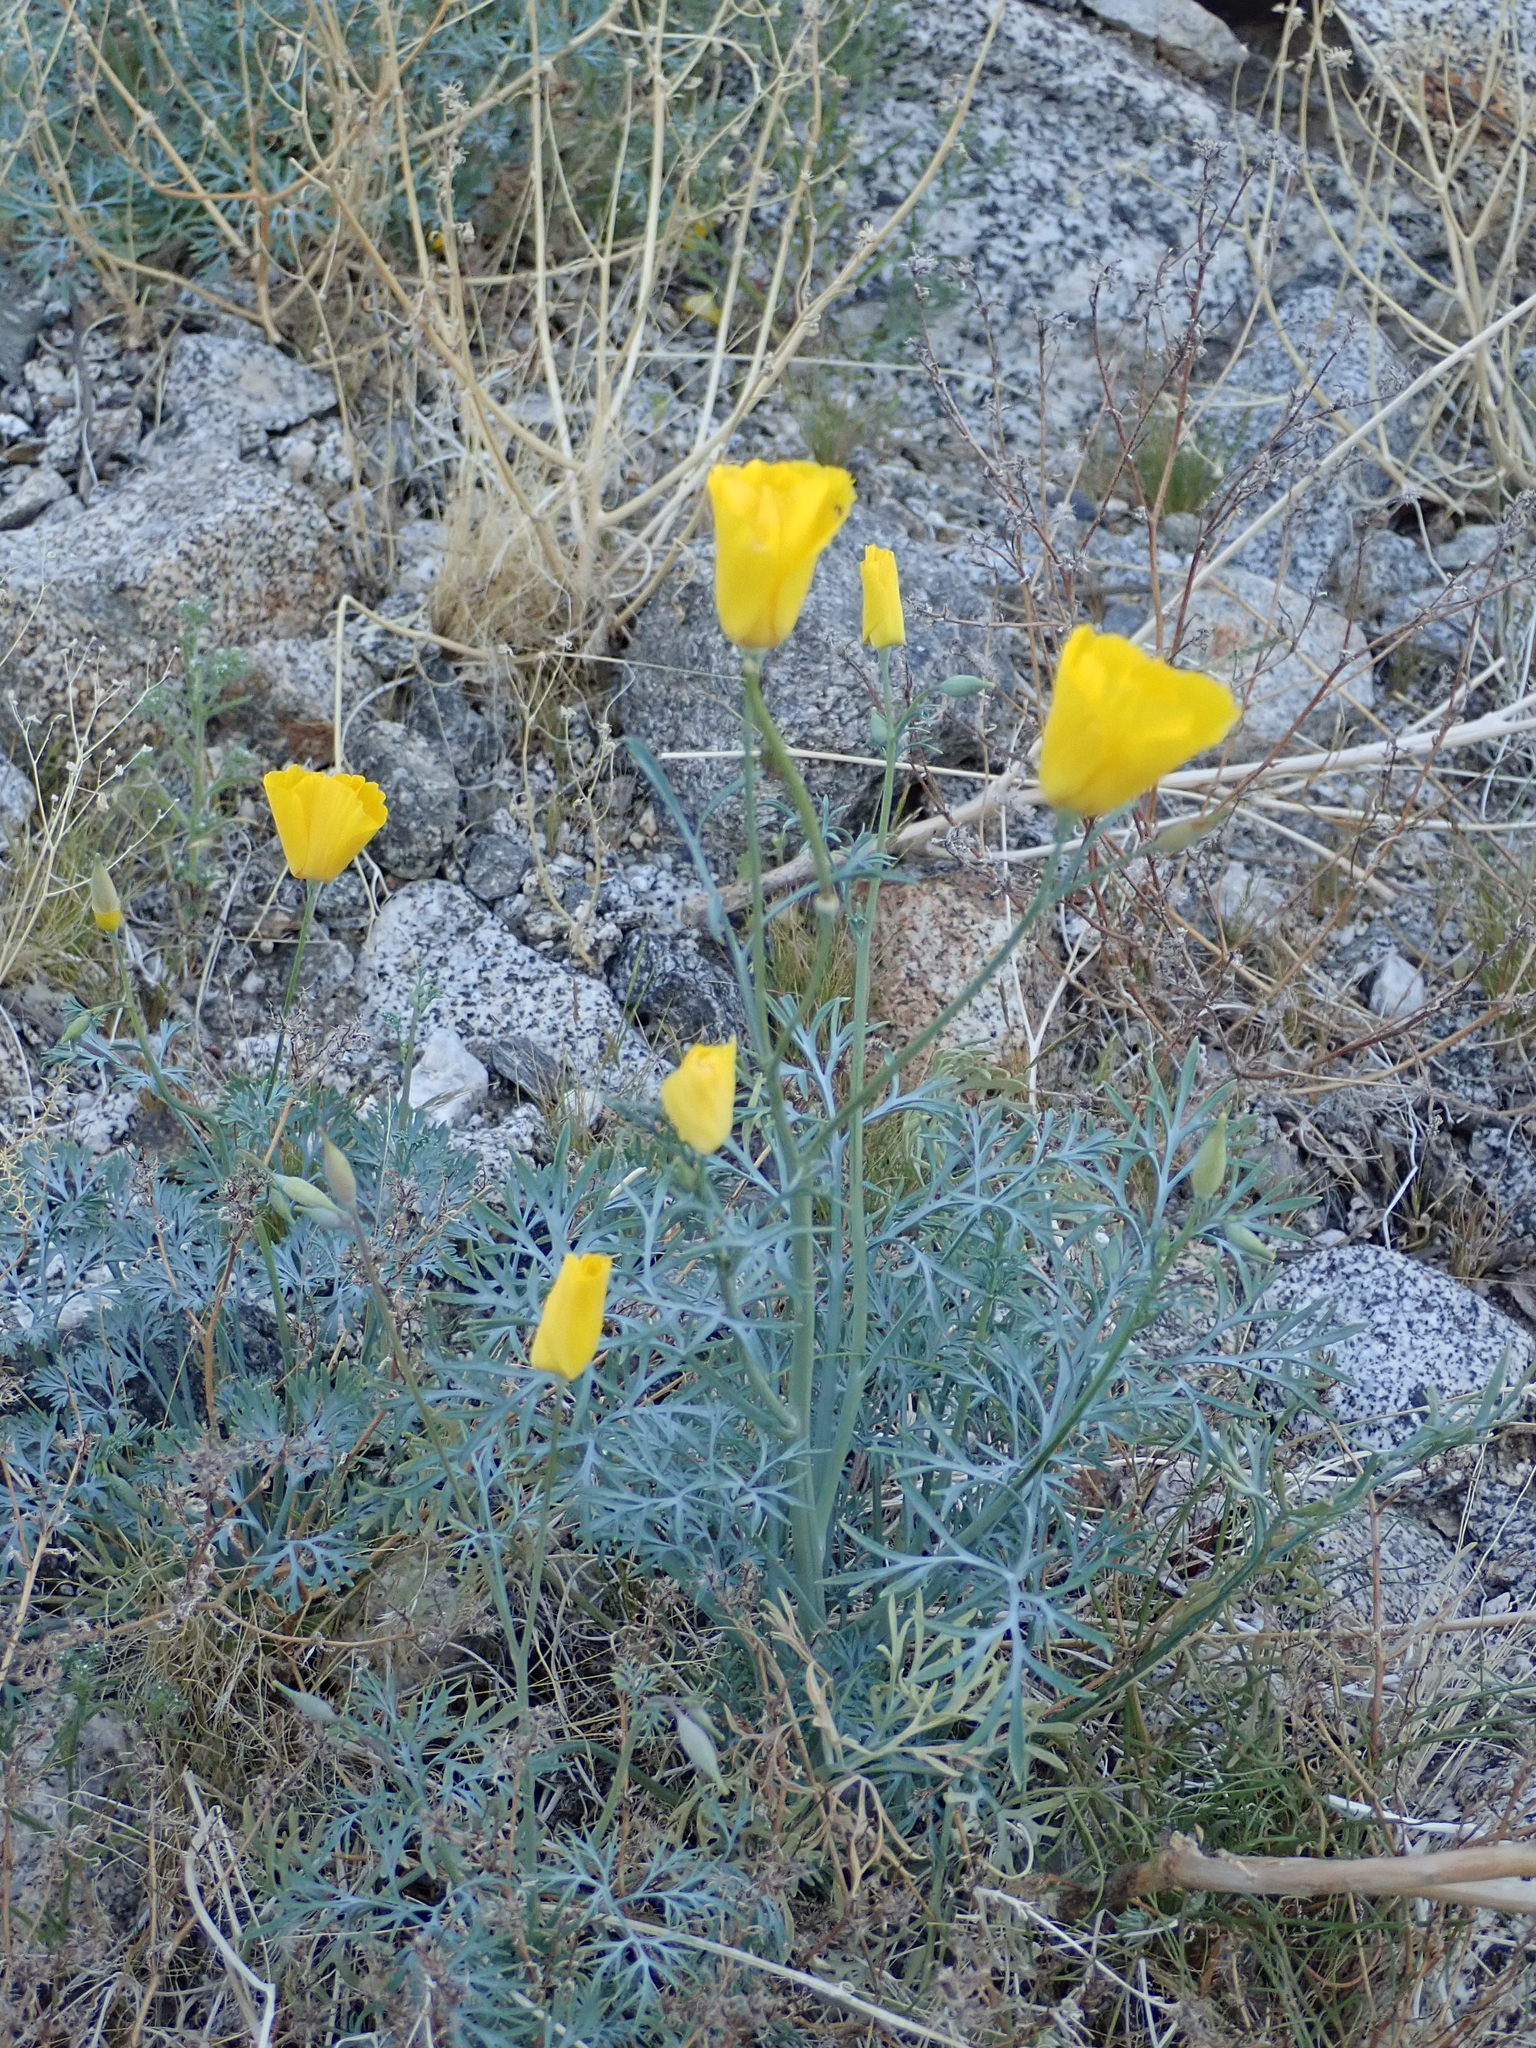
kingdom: Plantae
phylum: Tracheophyta
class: Magnoliopsida
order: Ranunculales
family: Papaveraceae
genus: Eschscholzia
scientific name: Eschscholzia parishii
